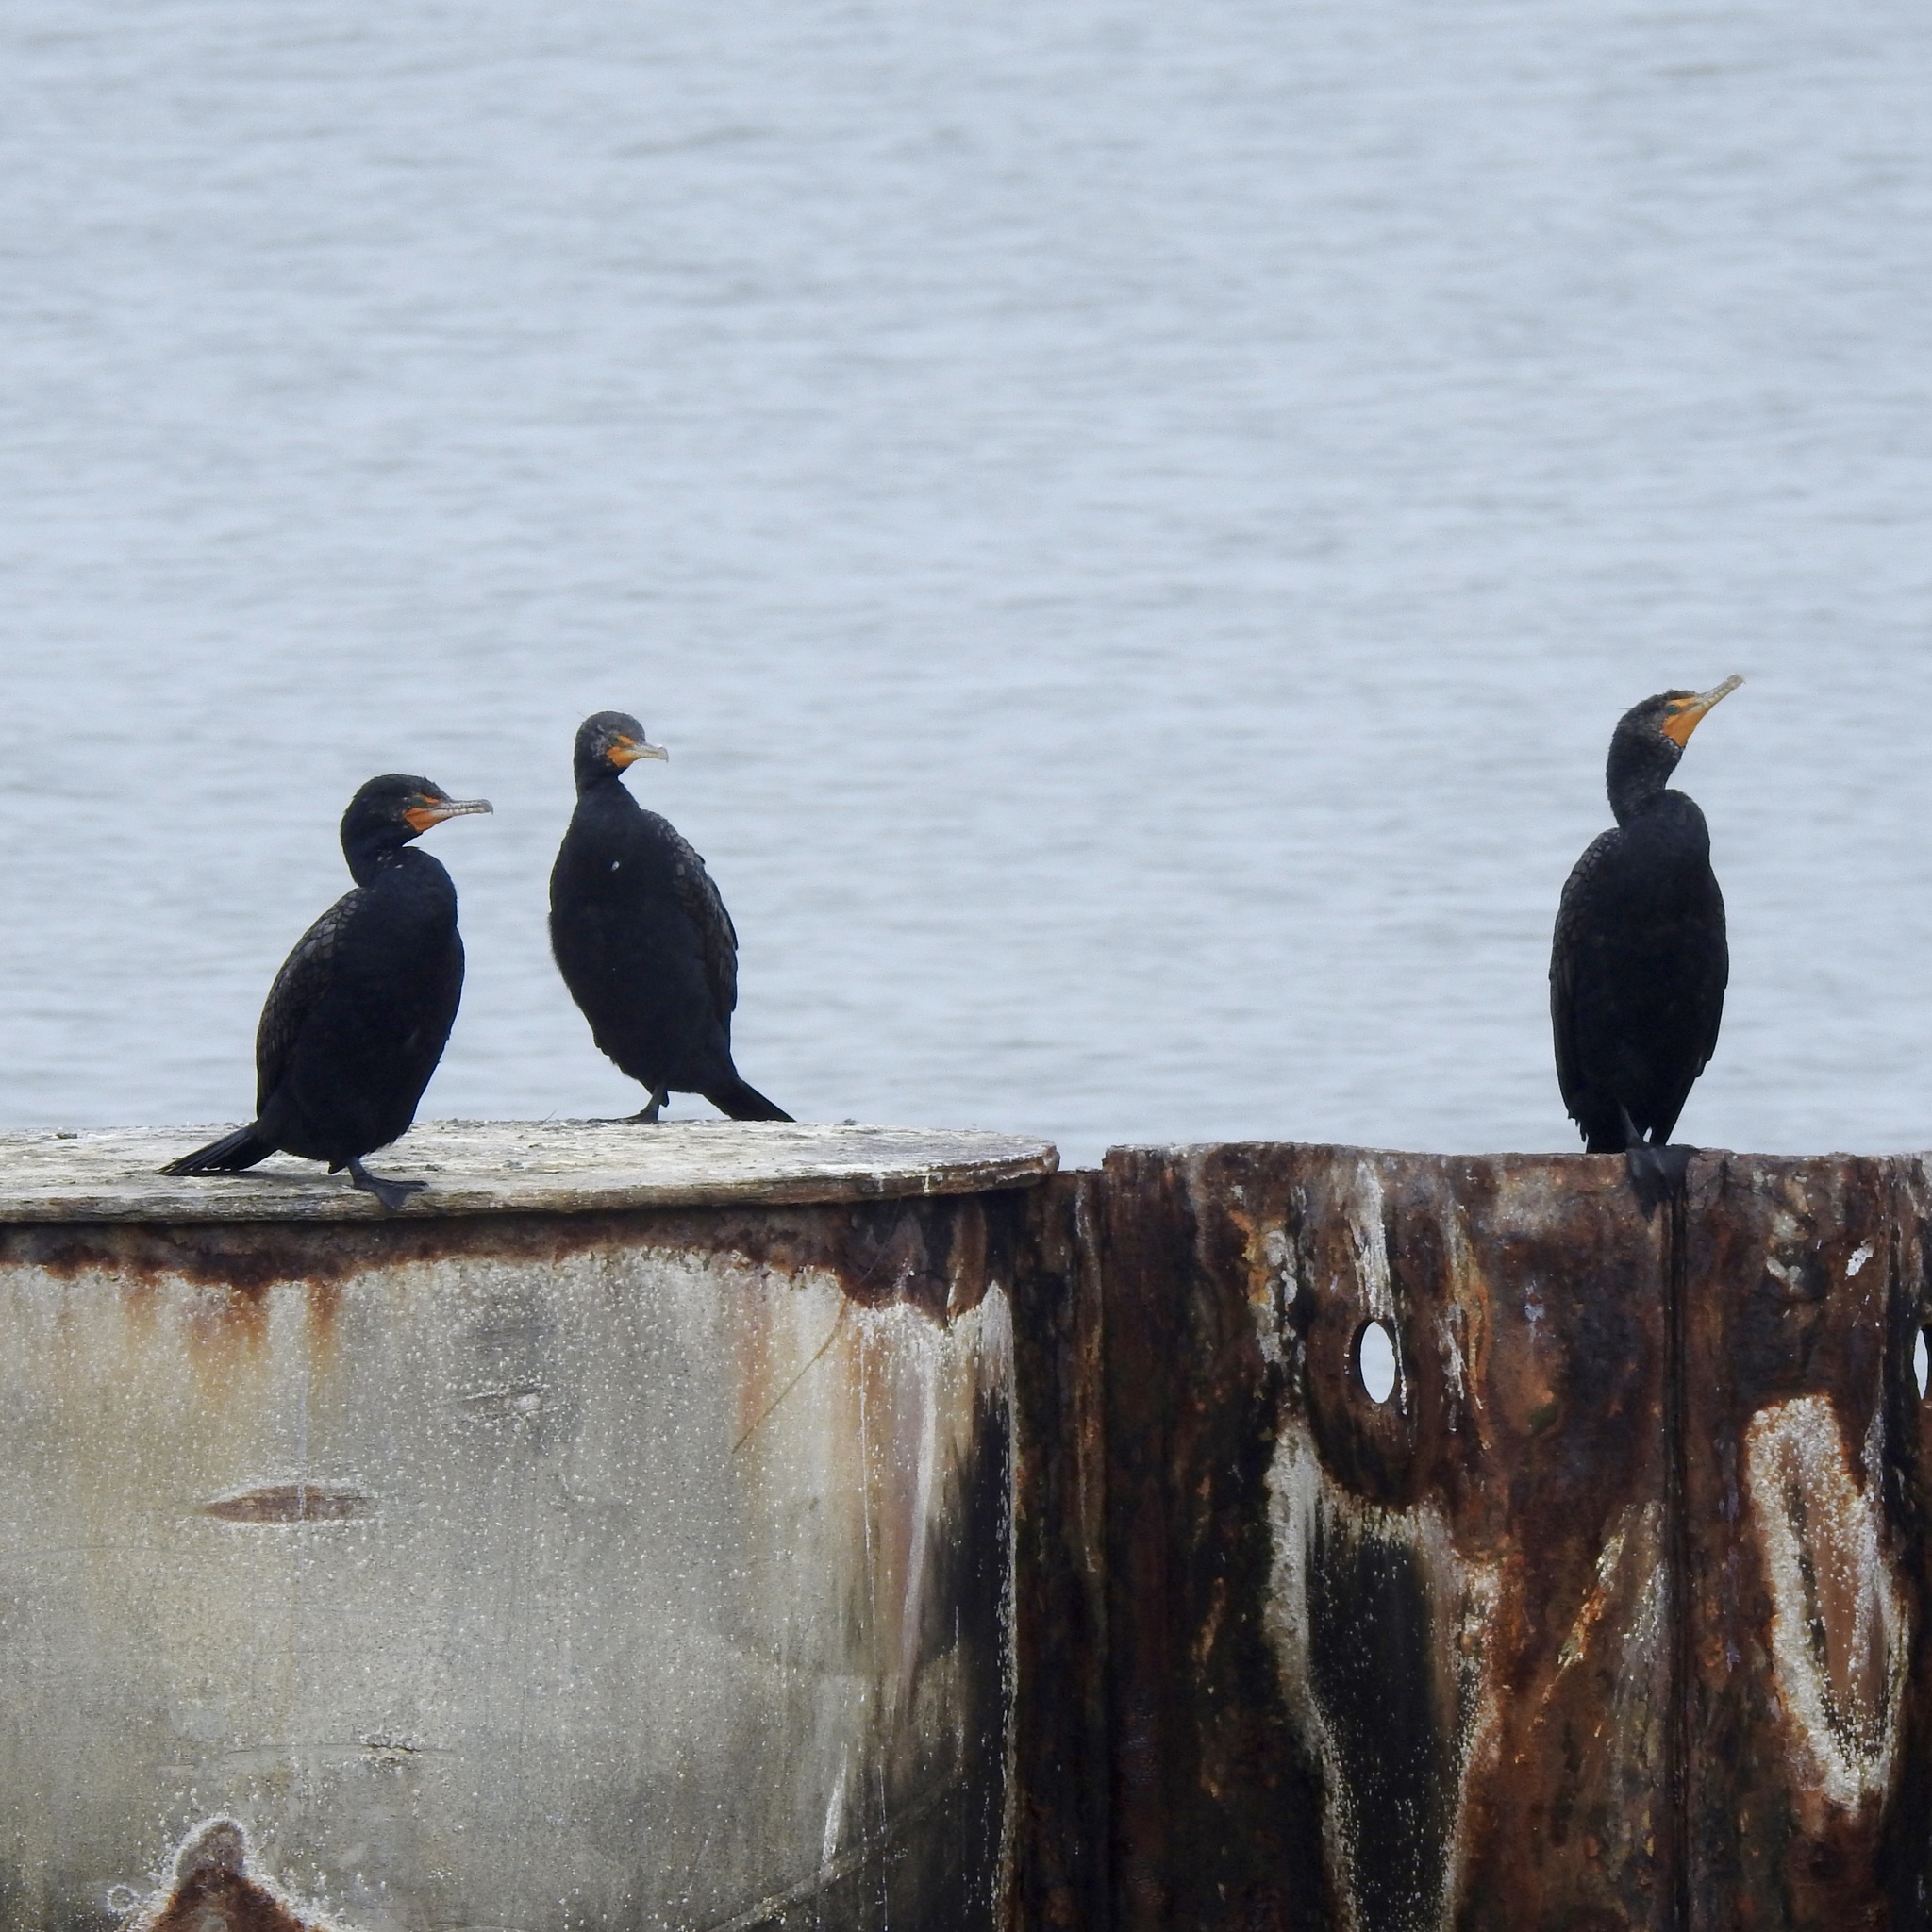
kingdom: Animalia
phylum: Chordata
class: Aves
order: Suliformes
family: Phalacrocoracidae
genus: Phalacrocorax
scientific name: Phalacrocorax auritus
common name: Double-crested cormorant
